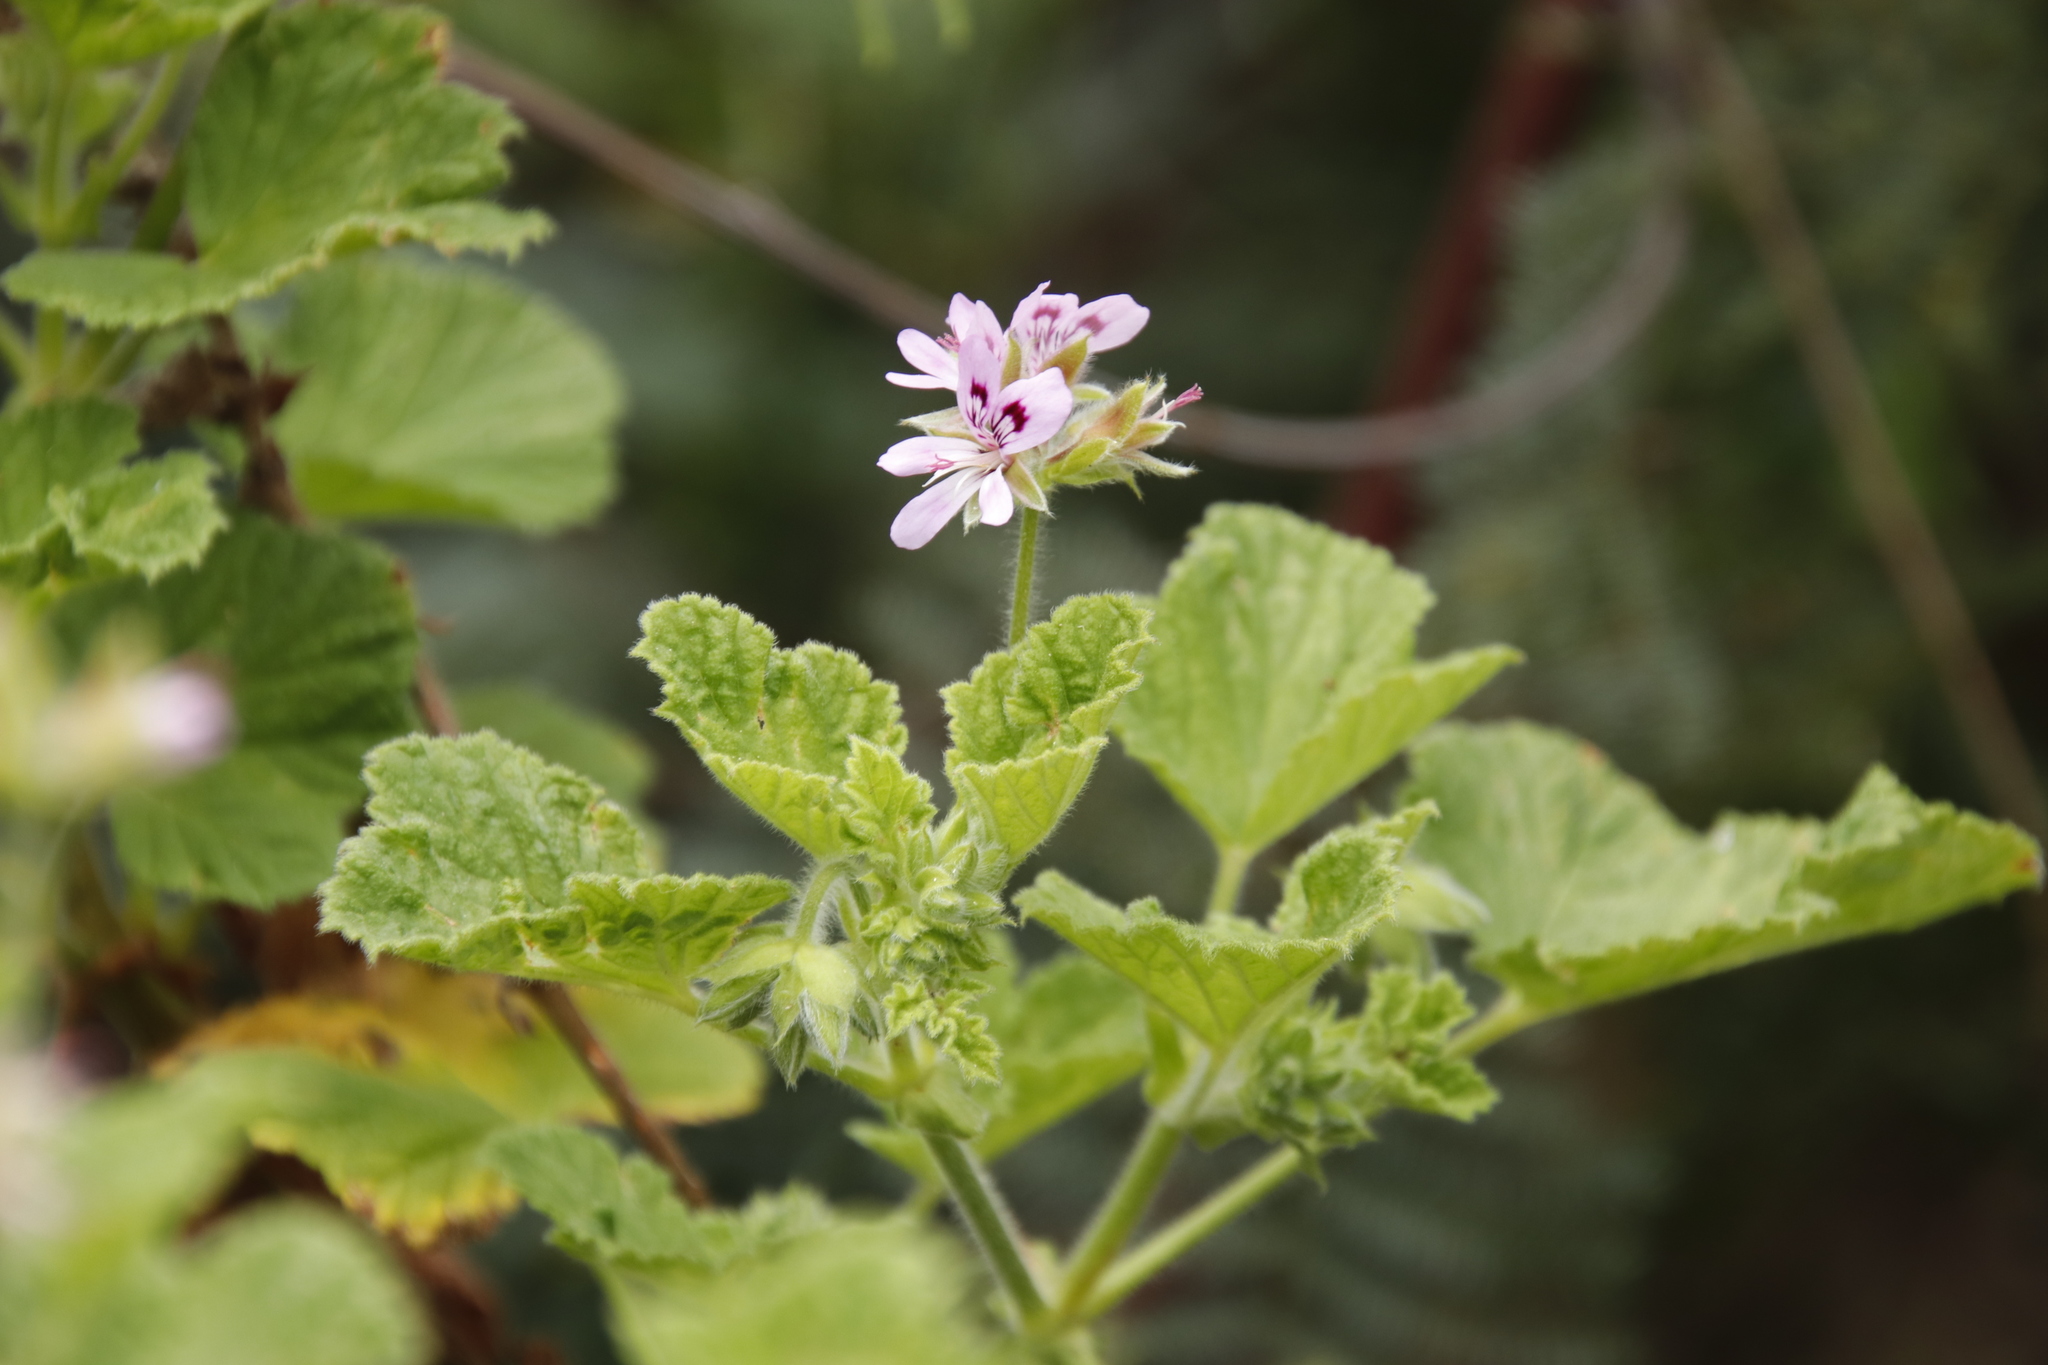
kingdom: Plantae
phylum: Tracheophyta
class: Magnoliopsida
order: Geraniales
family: Geraniaceae
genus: Pelargonium
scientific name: Pelargonium vitifolium
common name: Grapeleaf geranium
